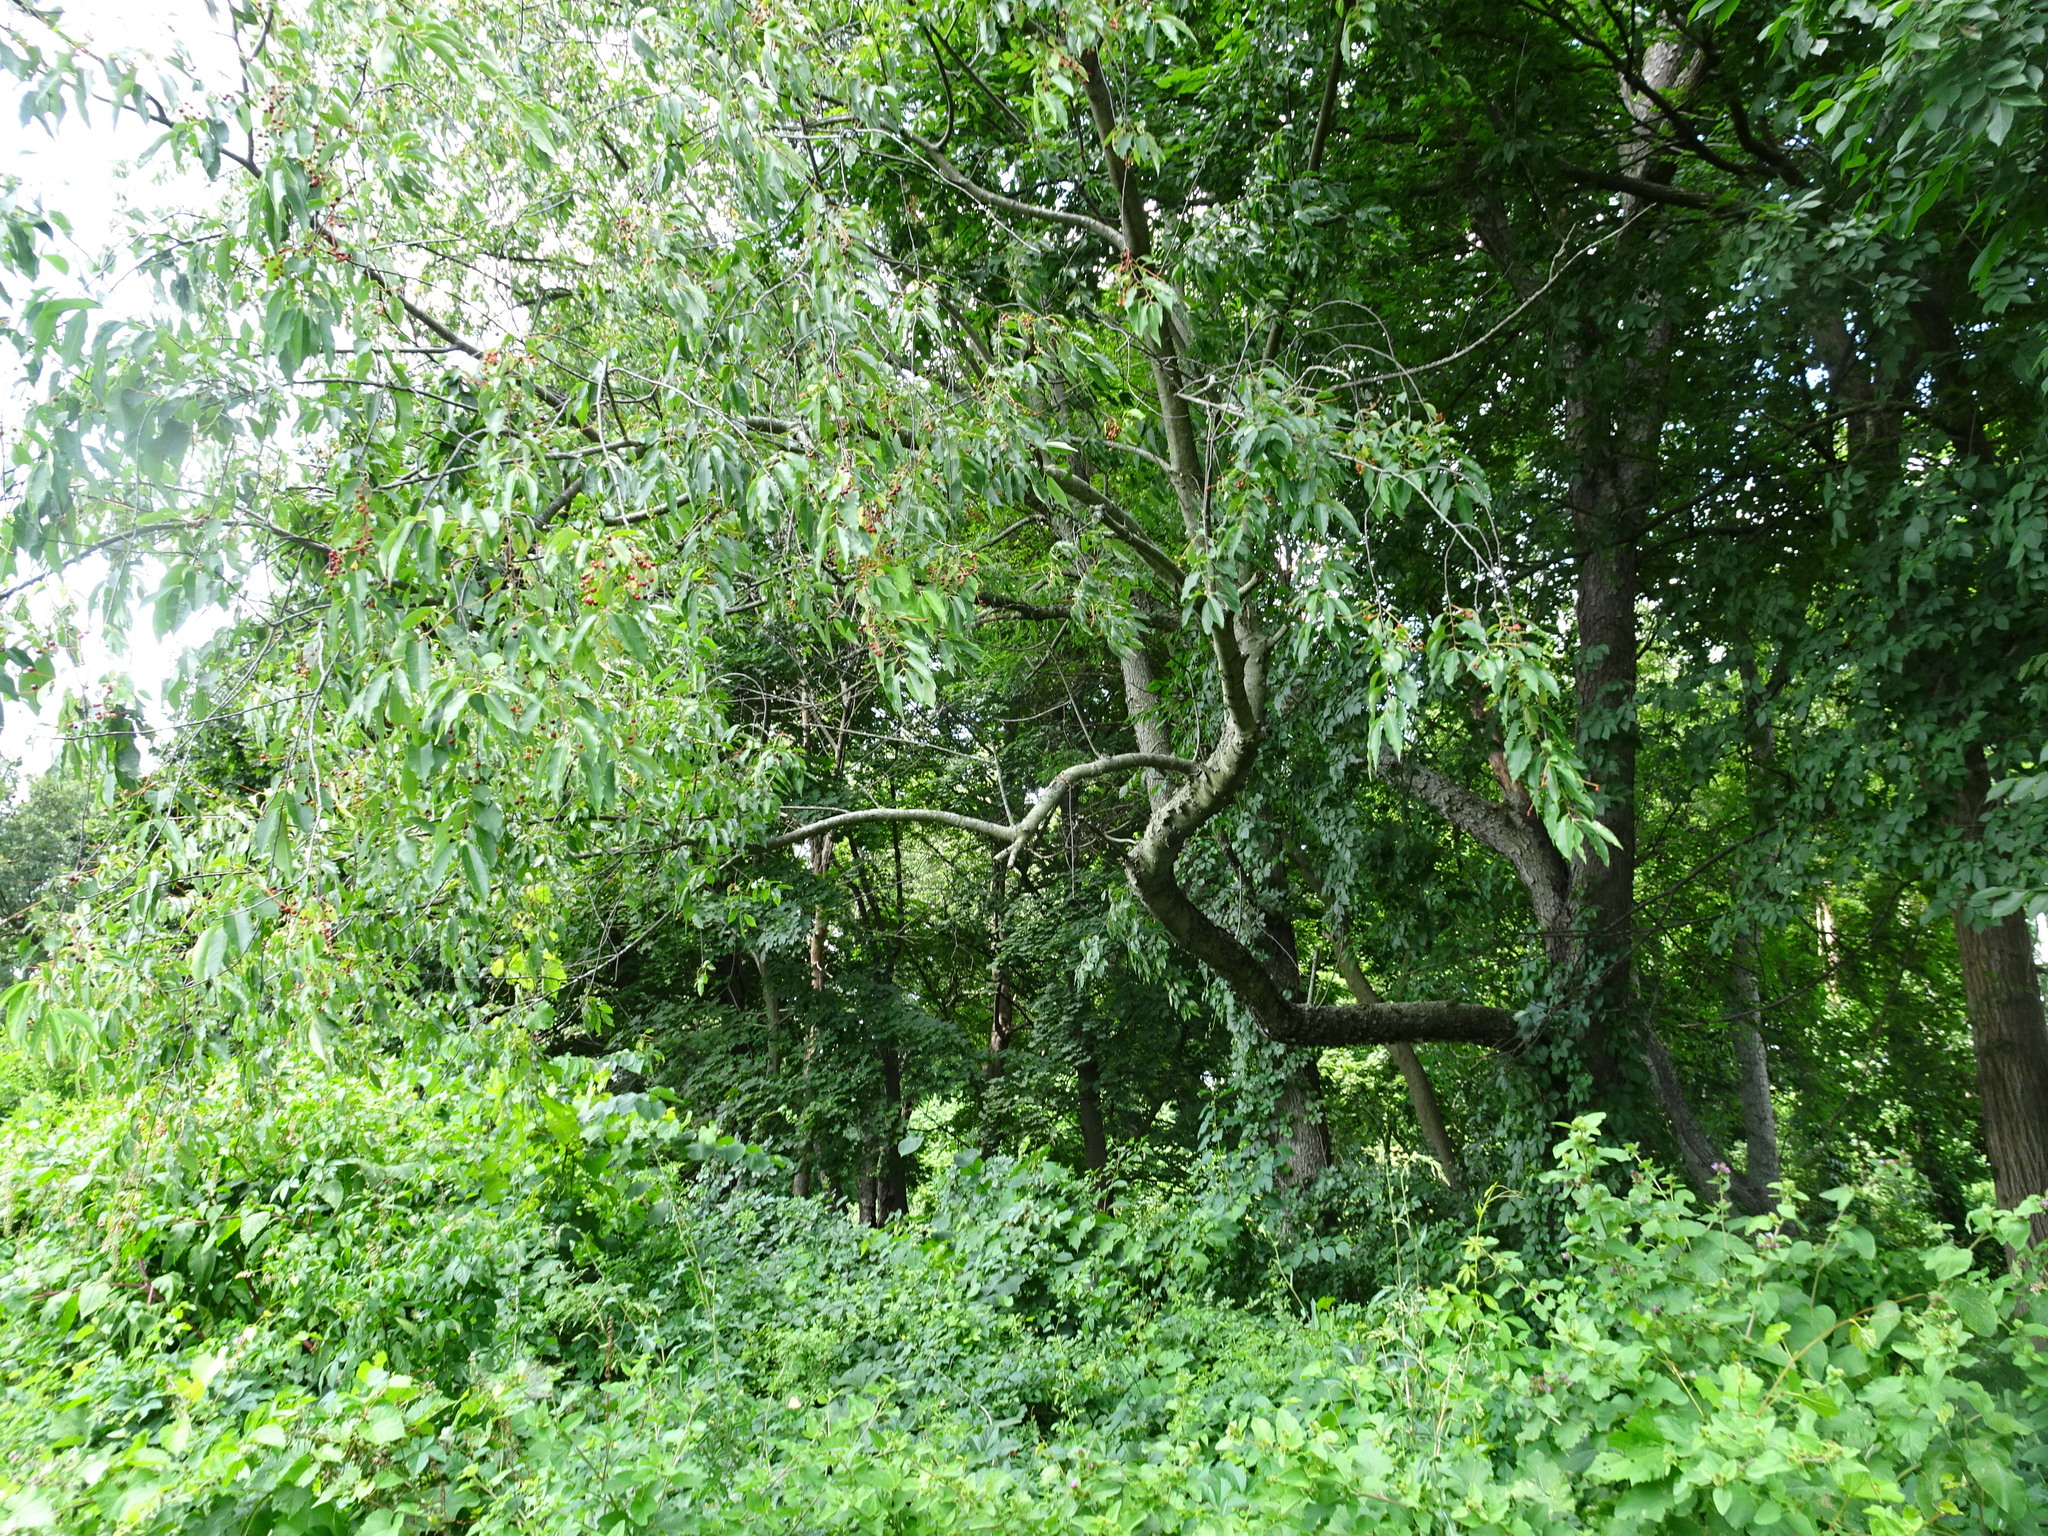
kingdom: Plantae
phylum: Tracheophyta
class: Magnoliopsida
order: Rosales
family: Rosaceae
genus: Prunus
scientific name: Prunus serotina
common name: Black cherry
